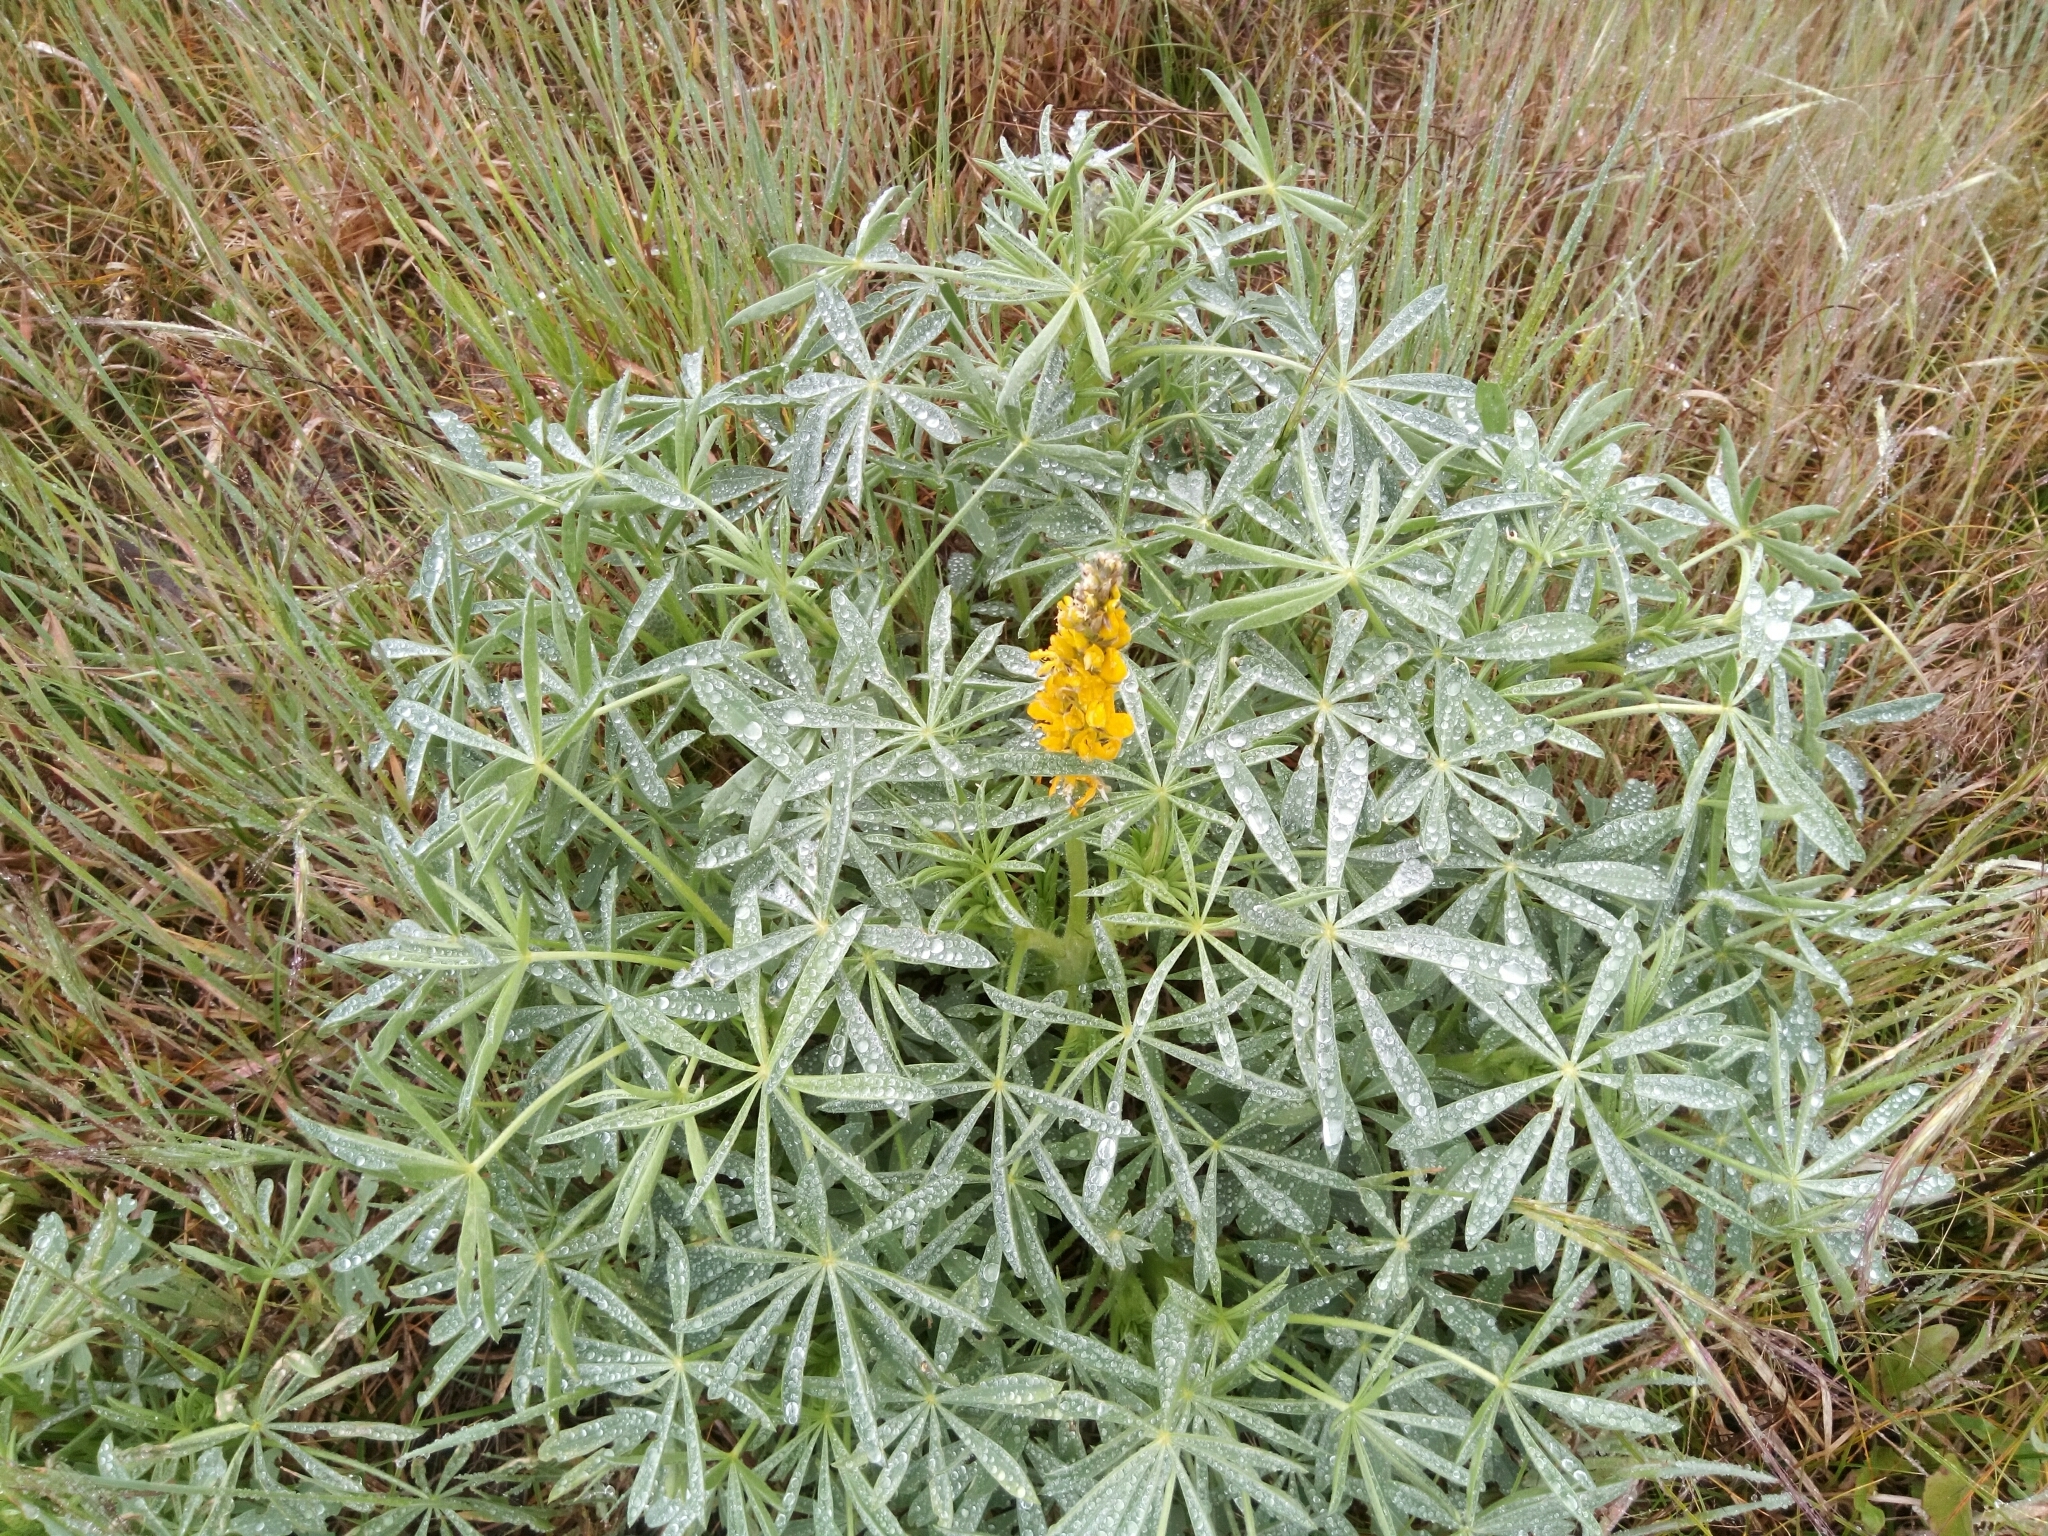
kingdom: Plantae
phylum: Tracheophyta
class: Magnoliopsida
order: Fabales
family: Fabaceae
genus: Lupinus
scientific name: Lupinus luteus
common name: European yellow lupine
